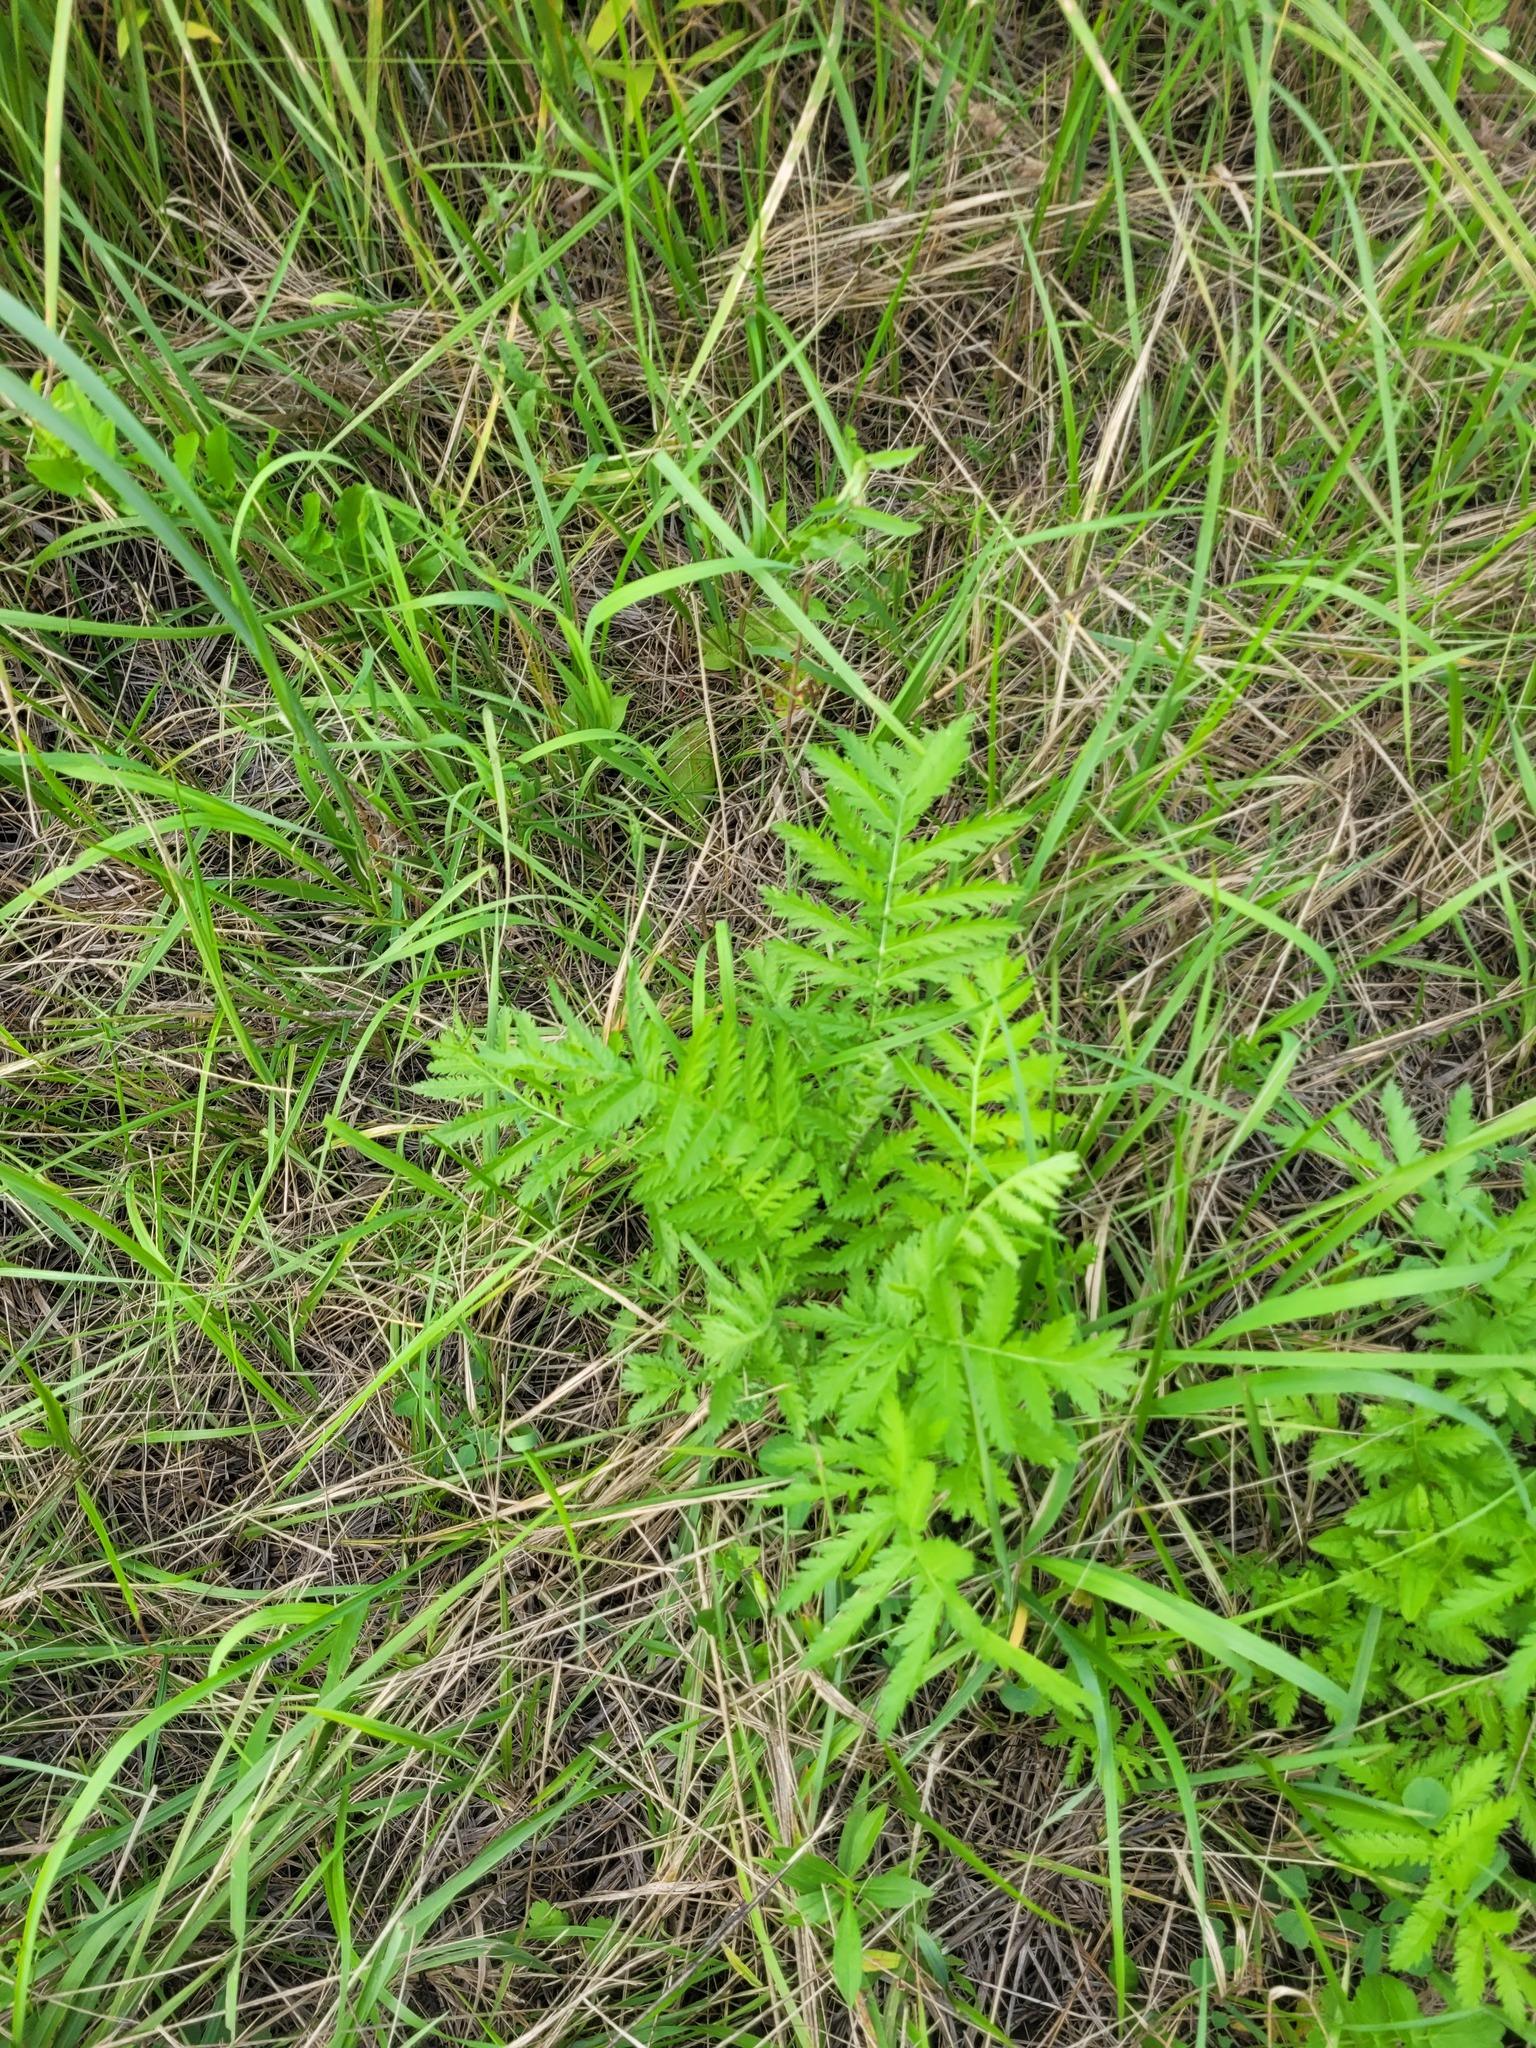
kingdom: Plantae
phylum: Tracheophyta
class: Magnoliopsida
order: Asterales
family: Asteraceae
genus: Tanacetum
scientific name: Tanacetum vulgare
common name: Common tansy
